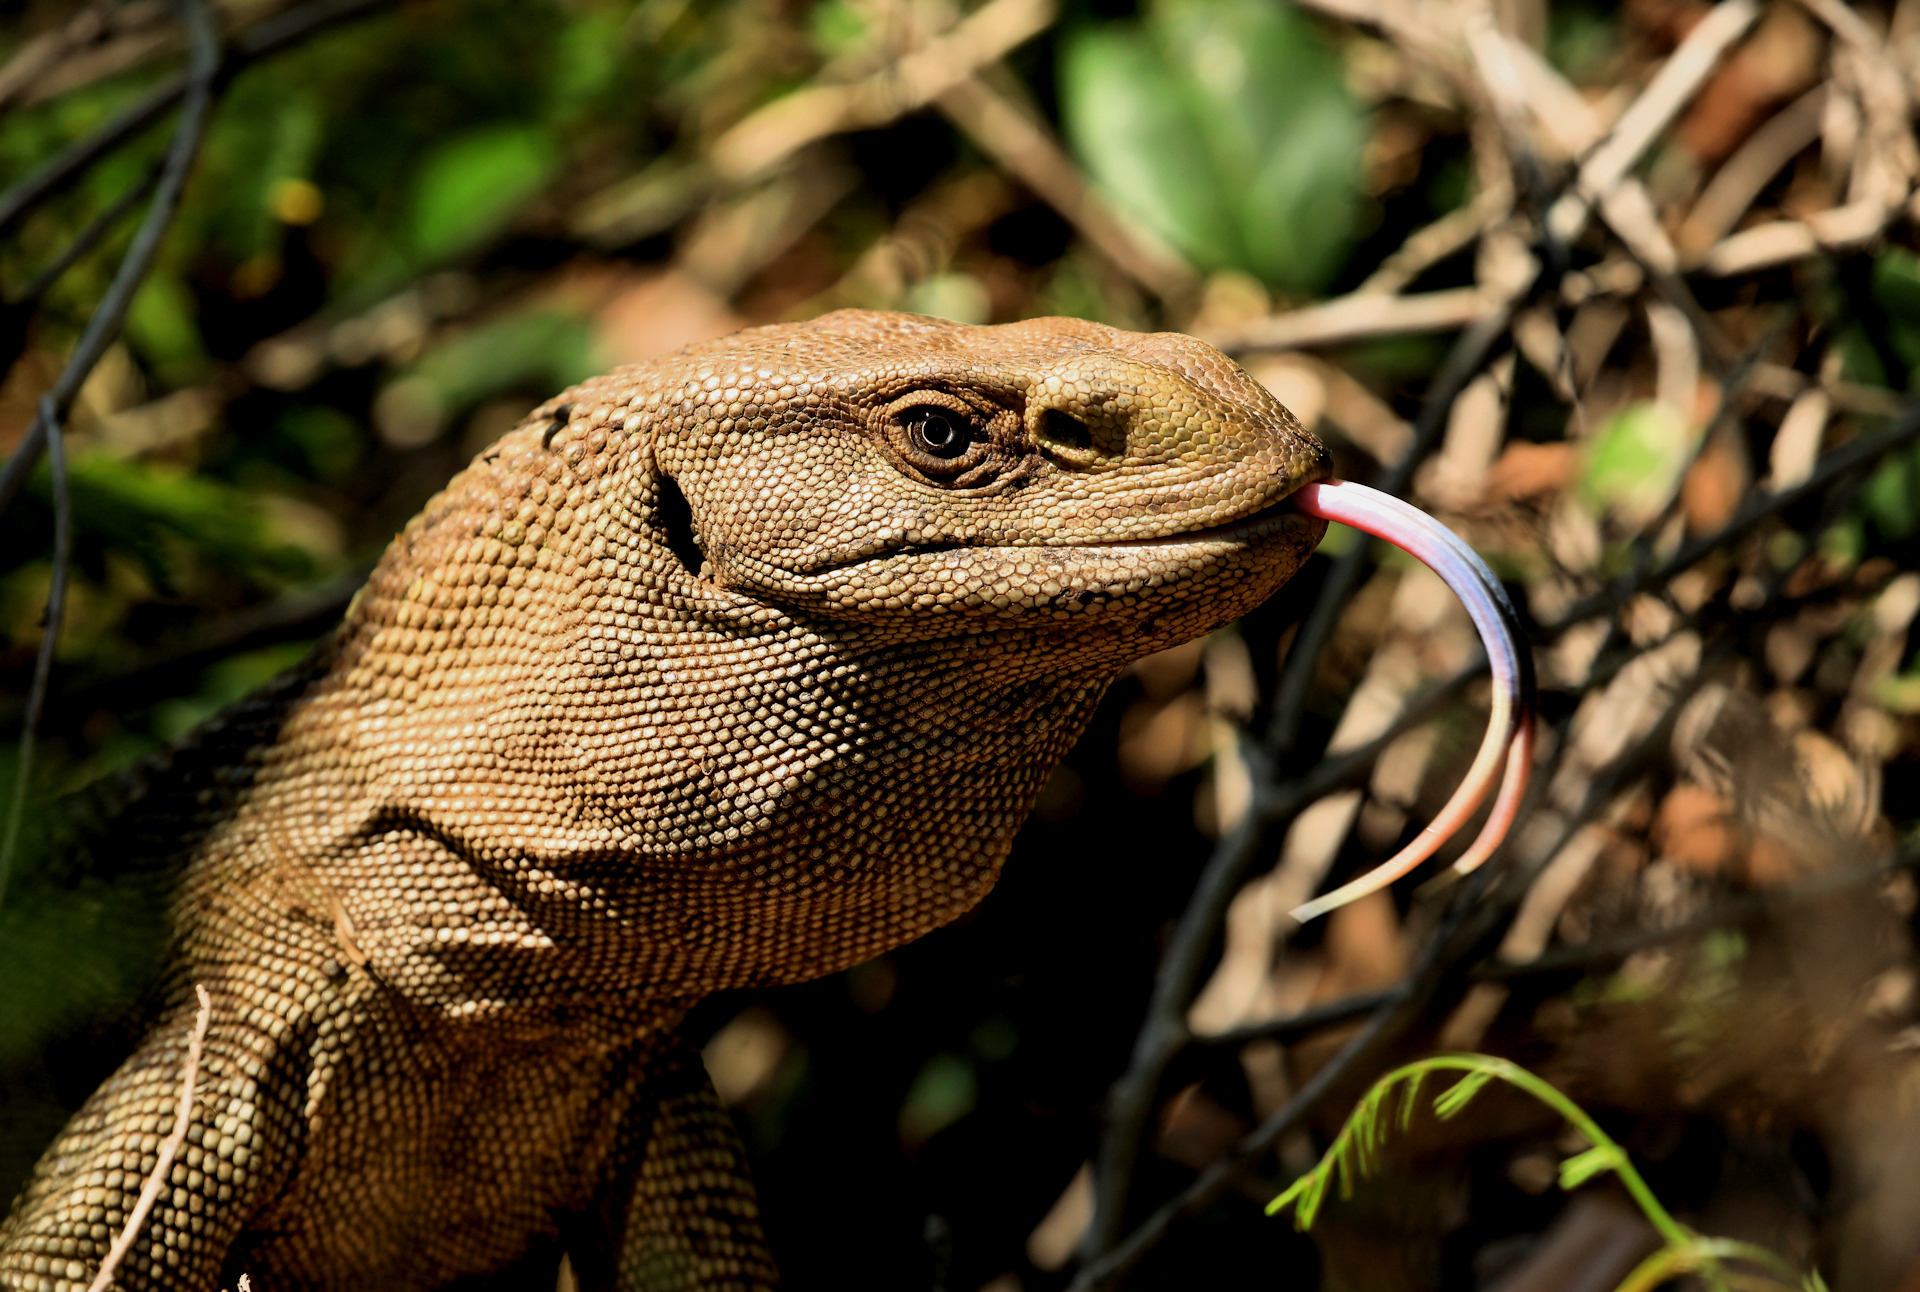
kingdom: Animalia
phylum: Chordata
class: Squamata
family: Varanidae
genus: Varanus
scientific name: Varanus albigularis
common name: White-throated monitor
